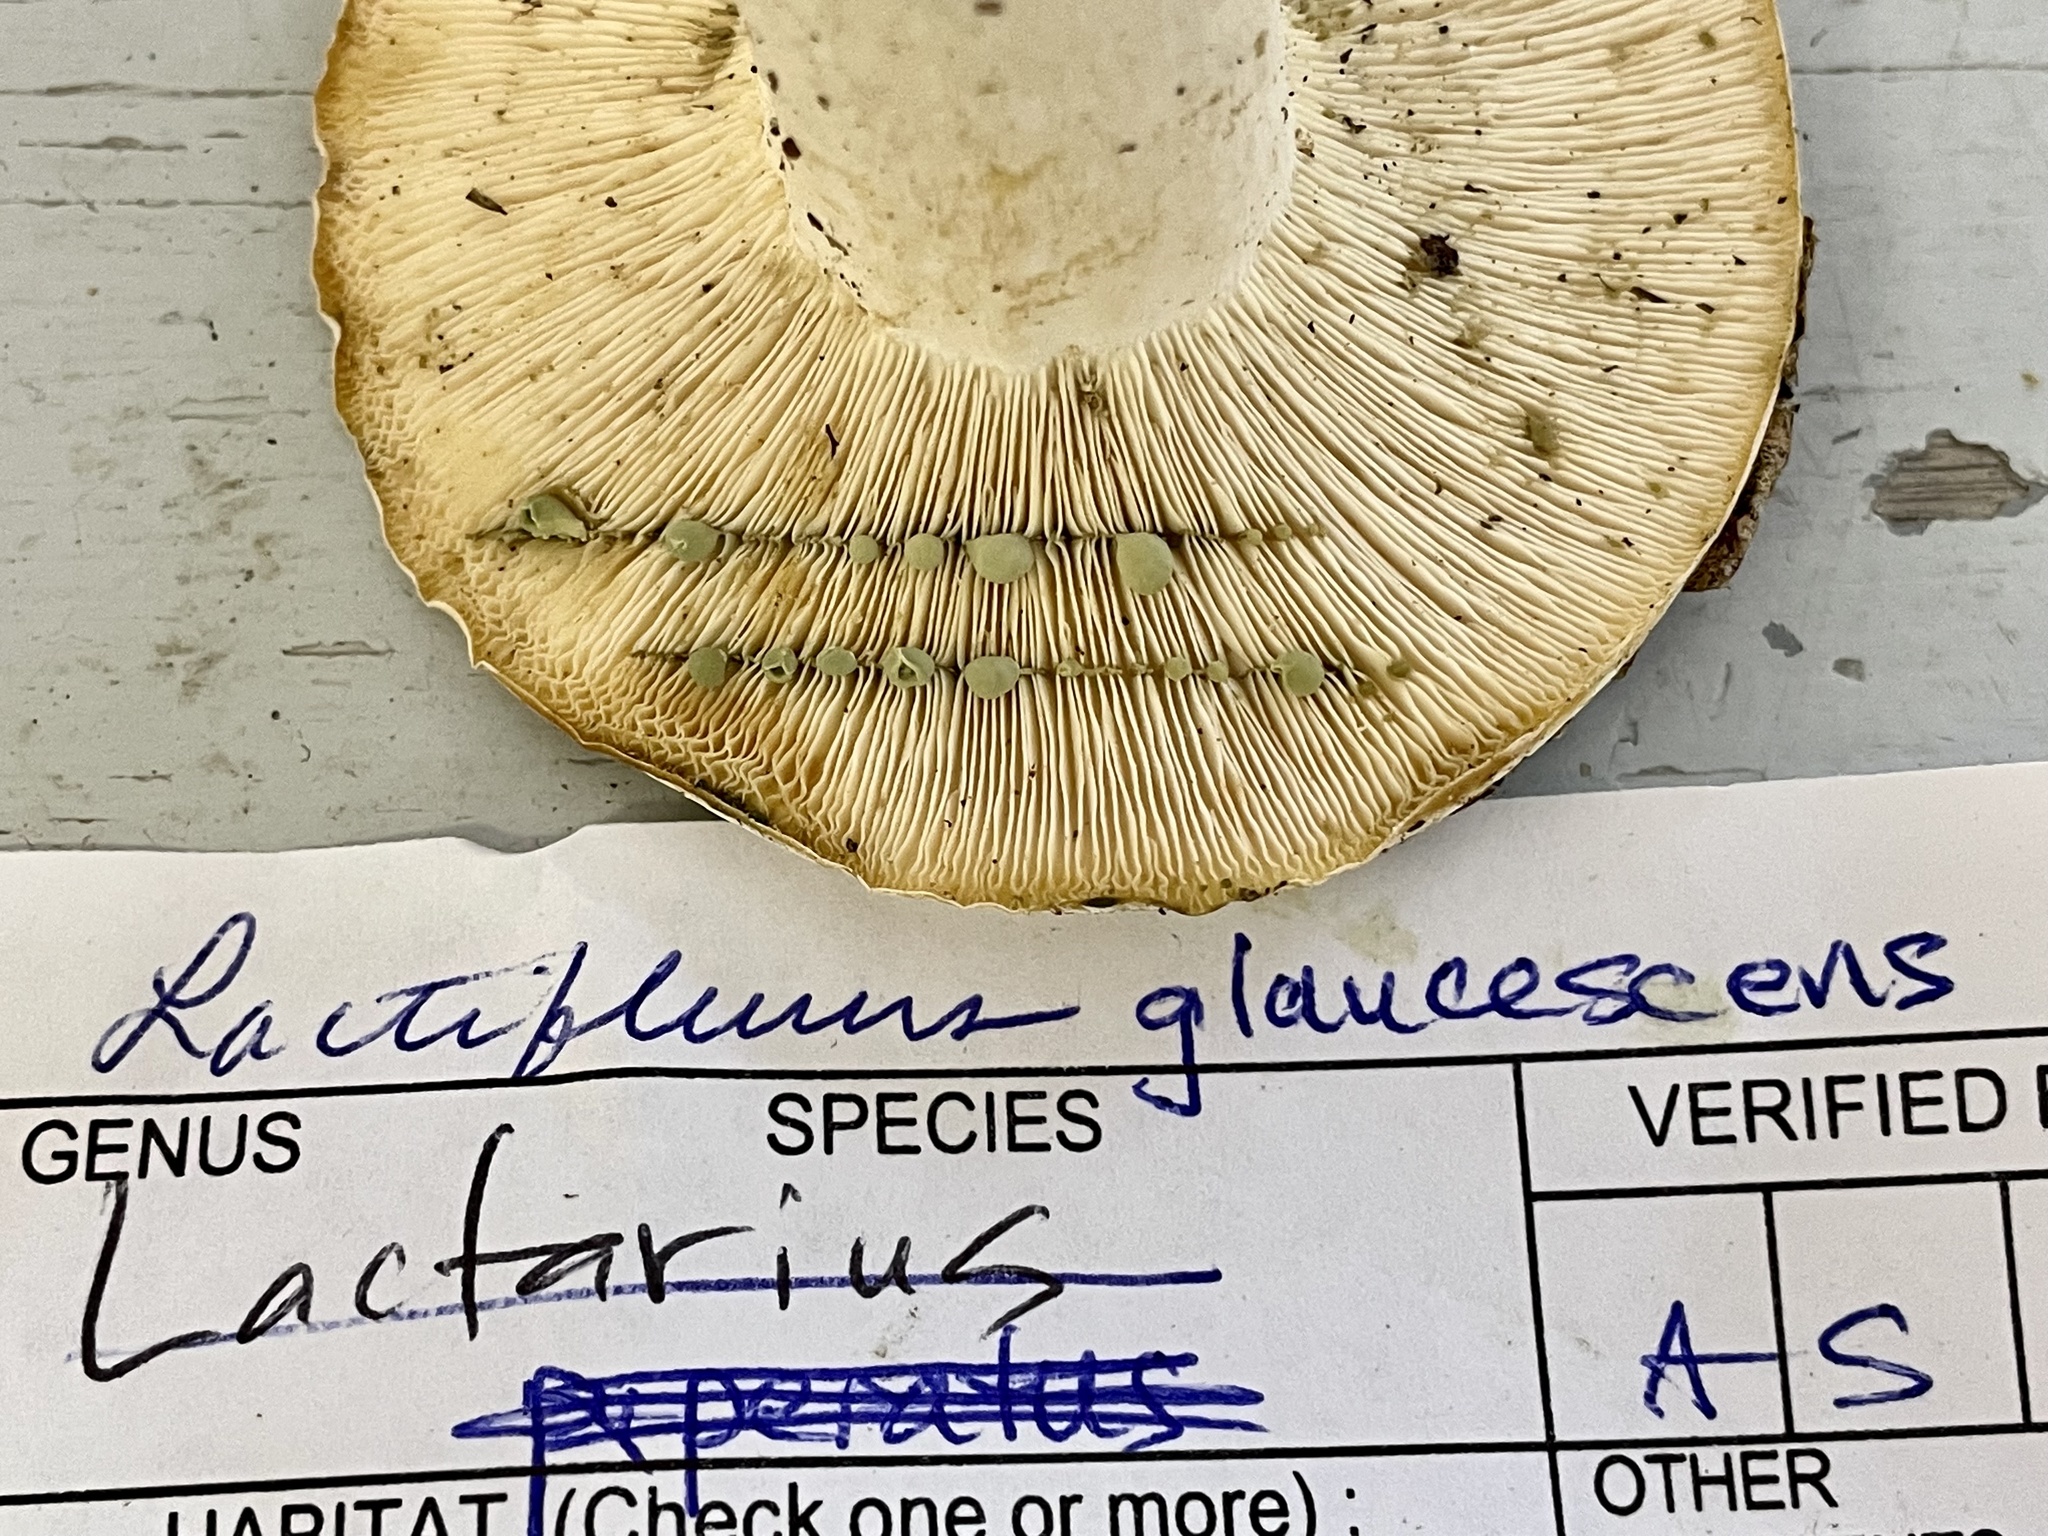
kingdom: Fungi
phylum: Basidiomycota
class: Agaricomycetes
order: Russulales
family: Russulaceae
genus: Lactifluus
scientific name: Lactifluus glaucescens
